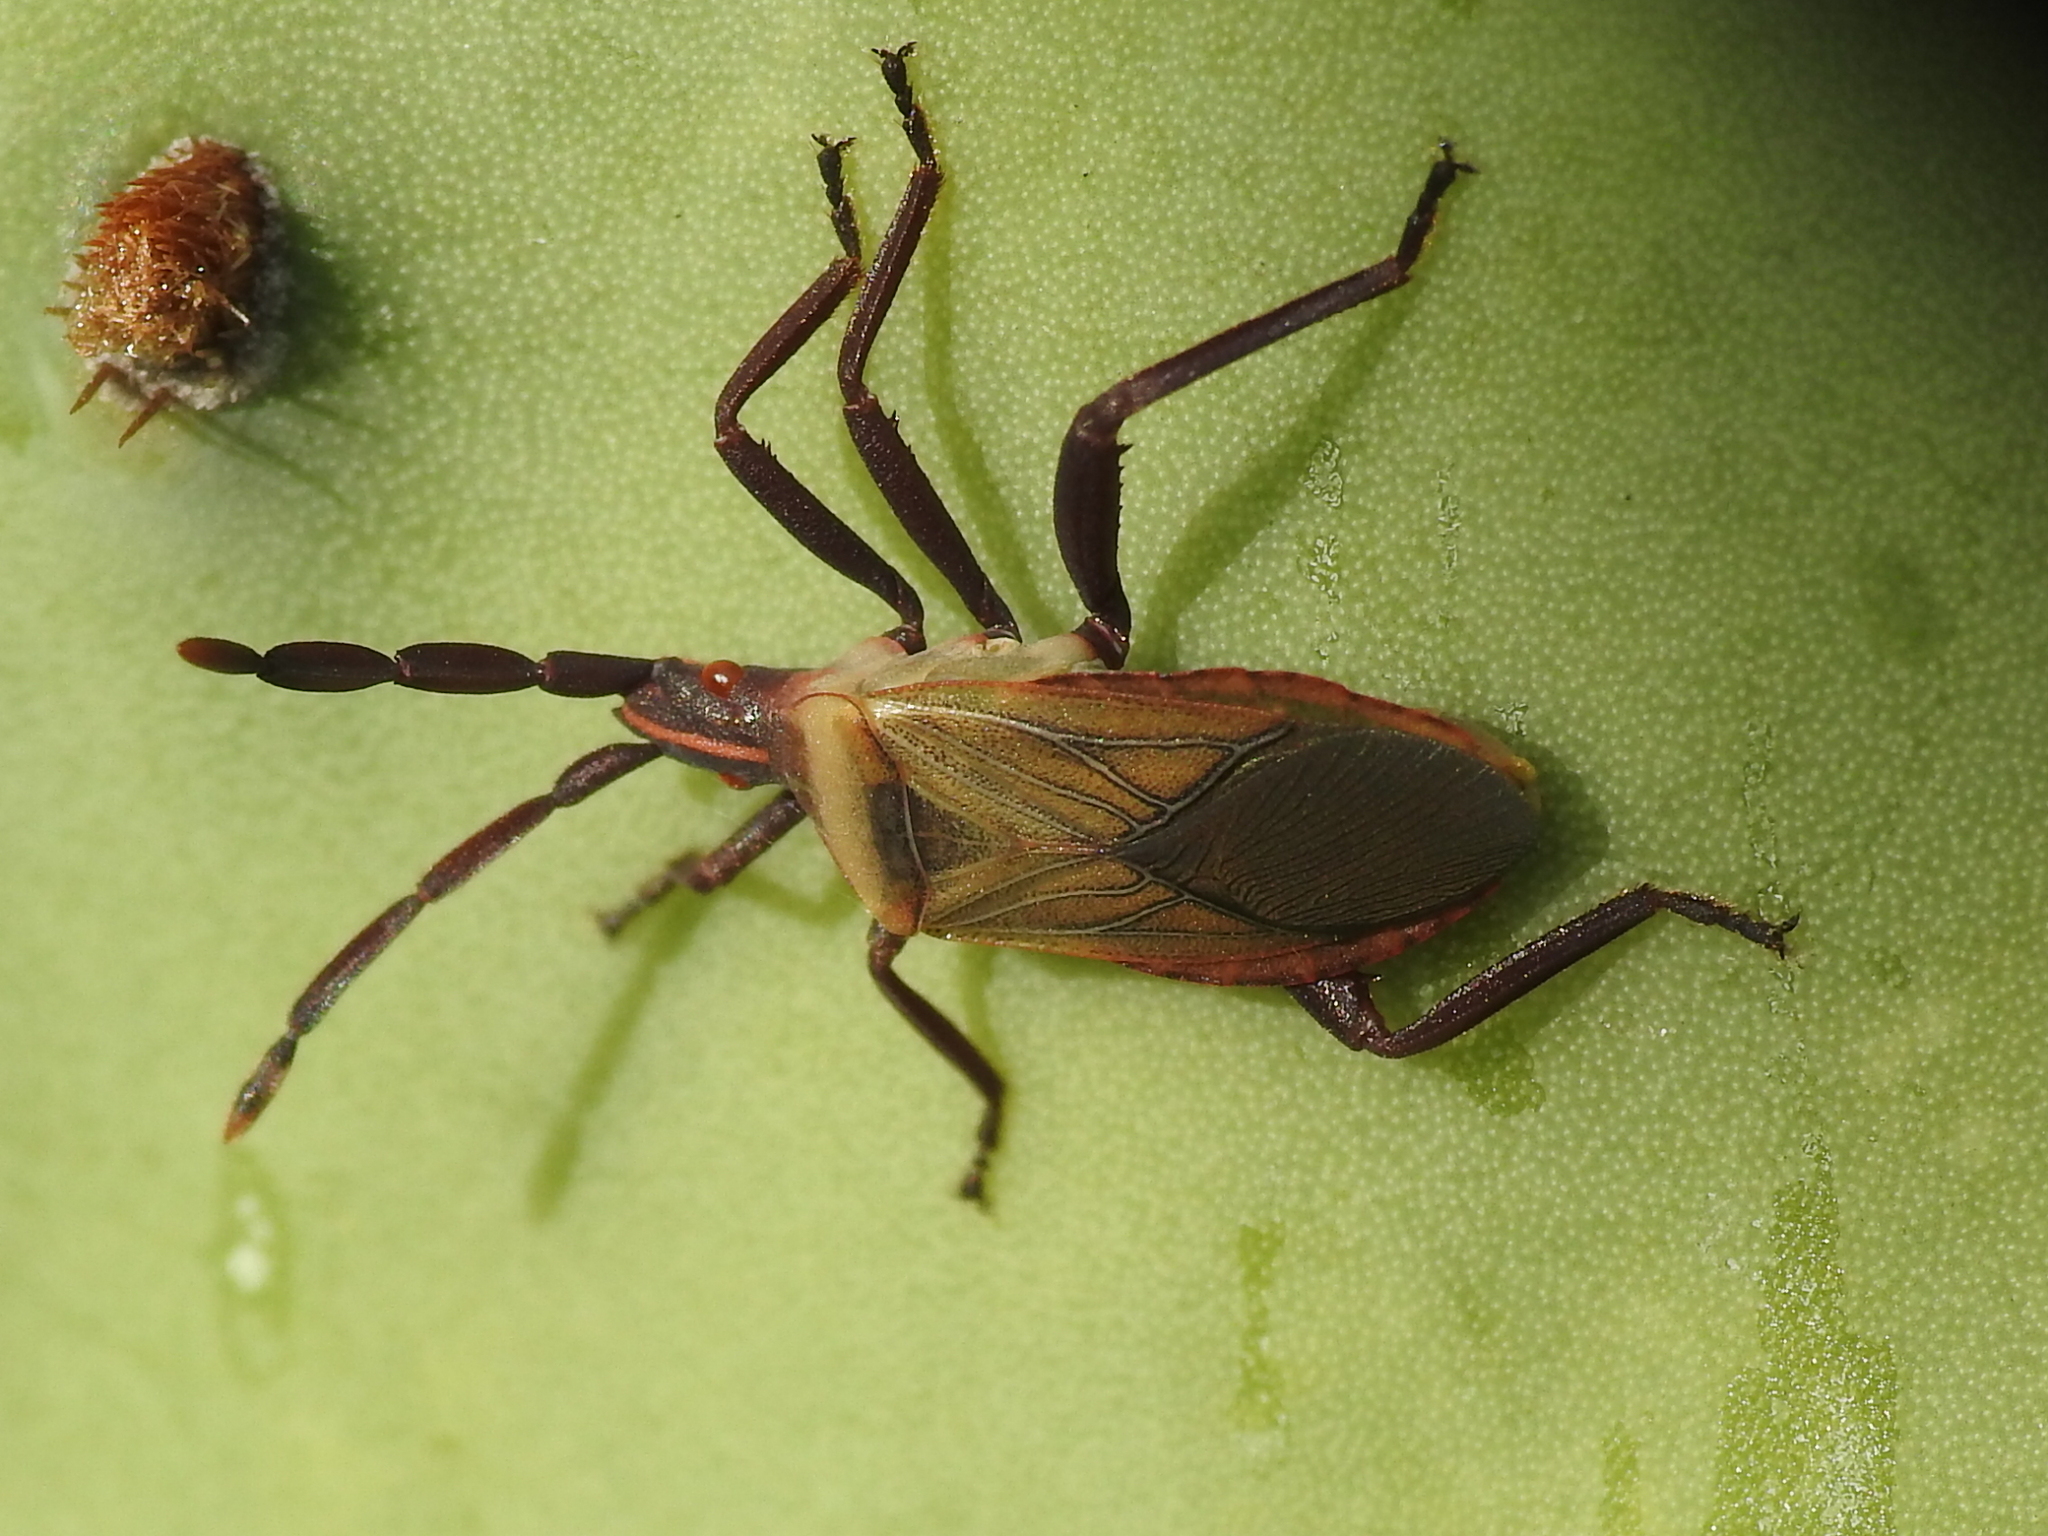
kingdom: Animalia
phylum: Arthropoda
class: Insecta
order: Hemiptera
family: Coreidae
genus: Chelinidea
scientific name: Chelinidea vittiger
